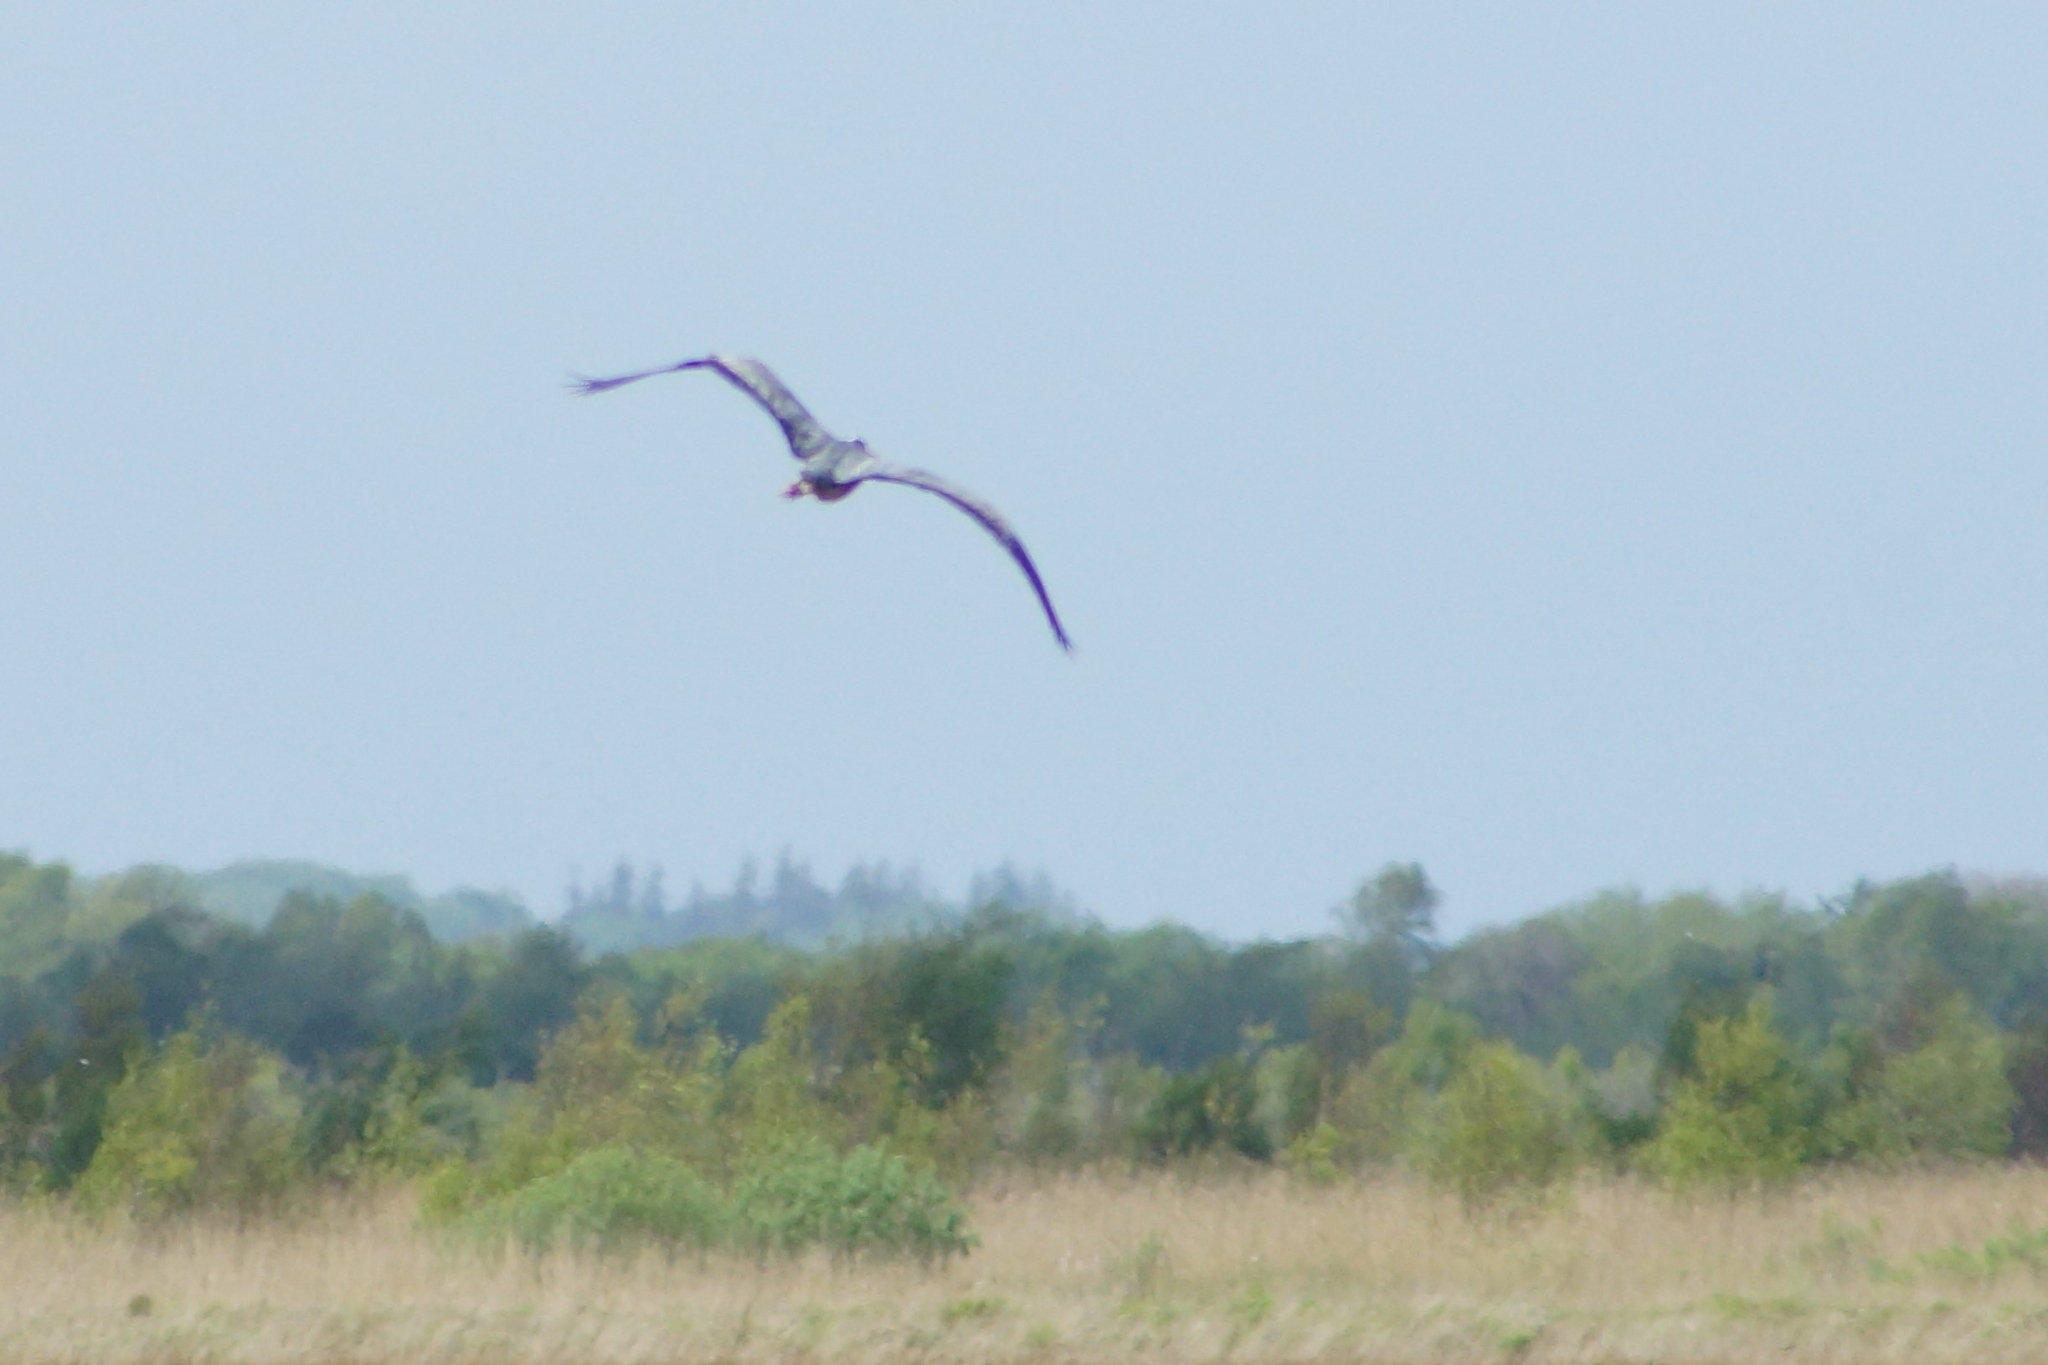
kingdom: Animalia
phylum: Chordata
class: Aves
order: Pelecaniformes
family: Ardeidae
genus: Ardea
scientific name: Ardea cinerea
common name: Grey heron
